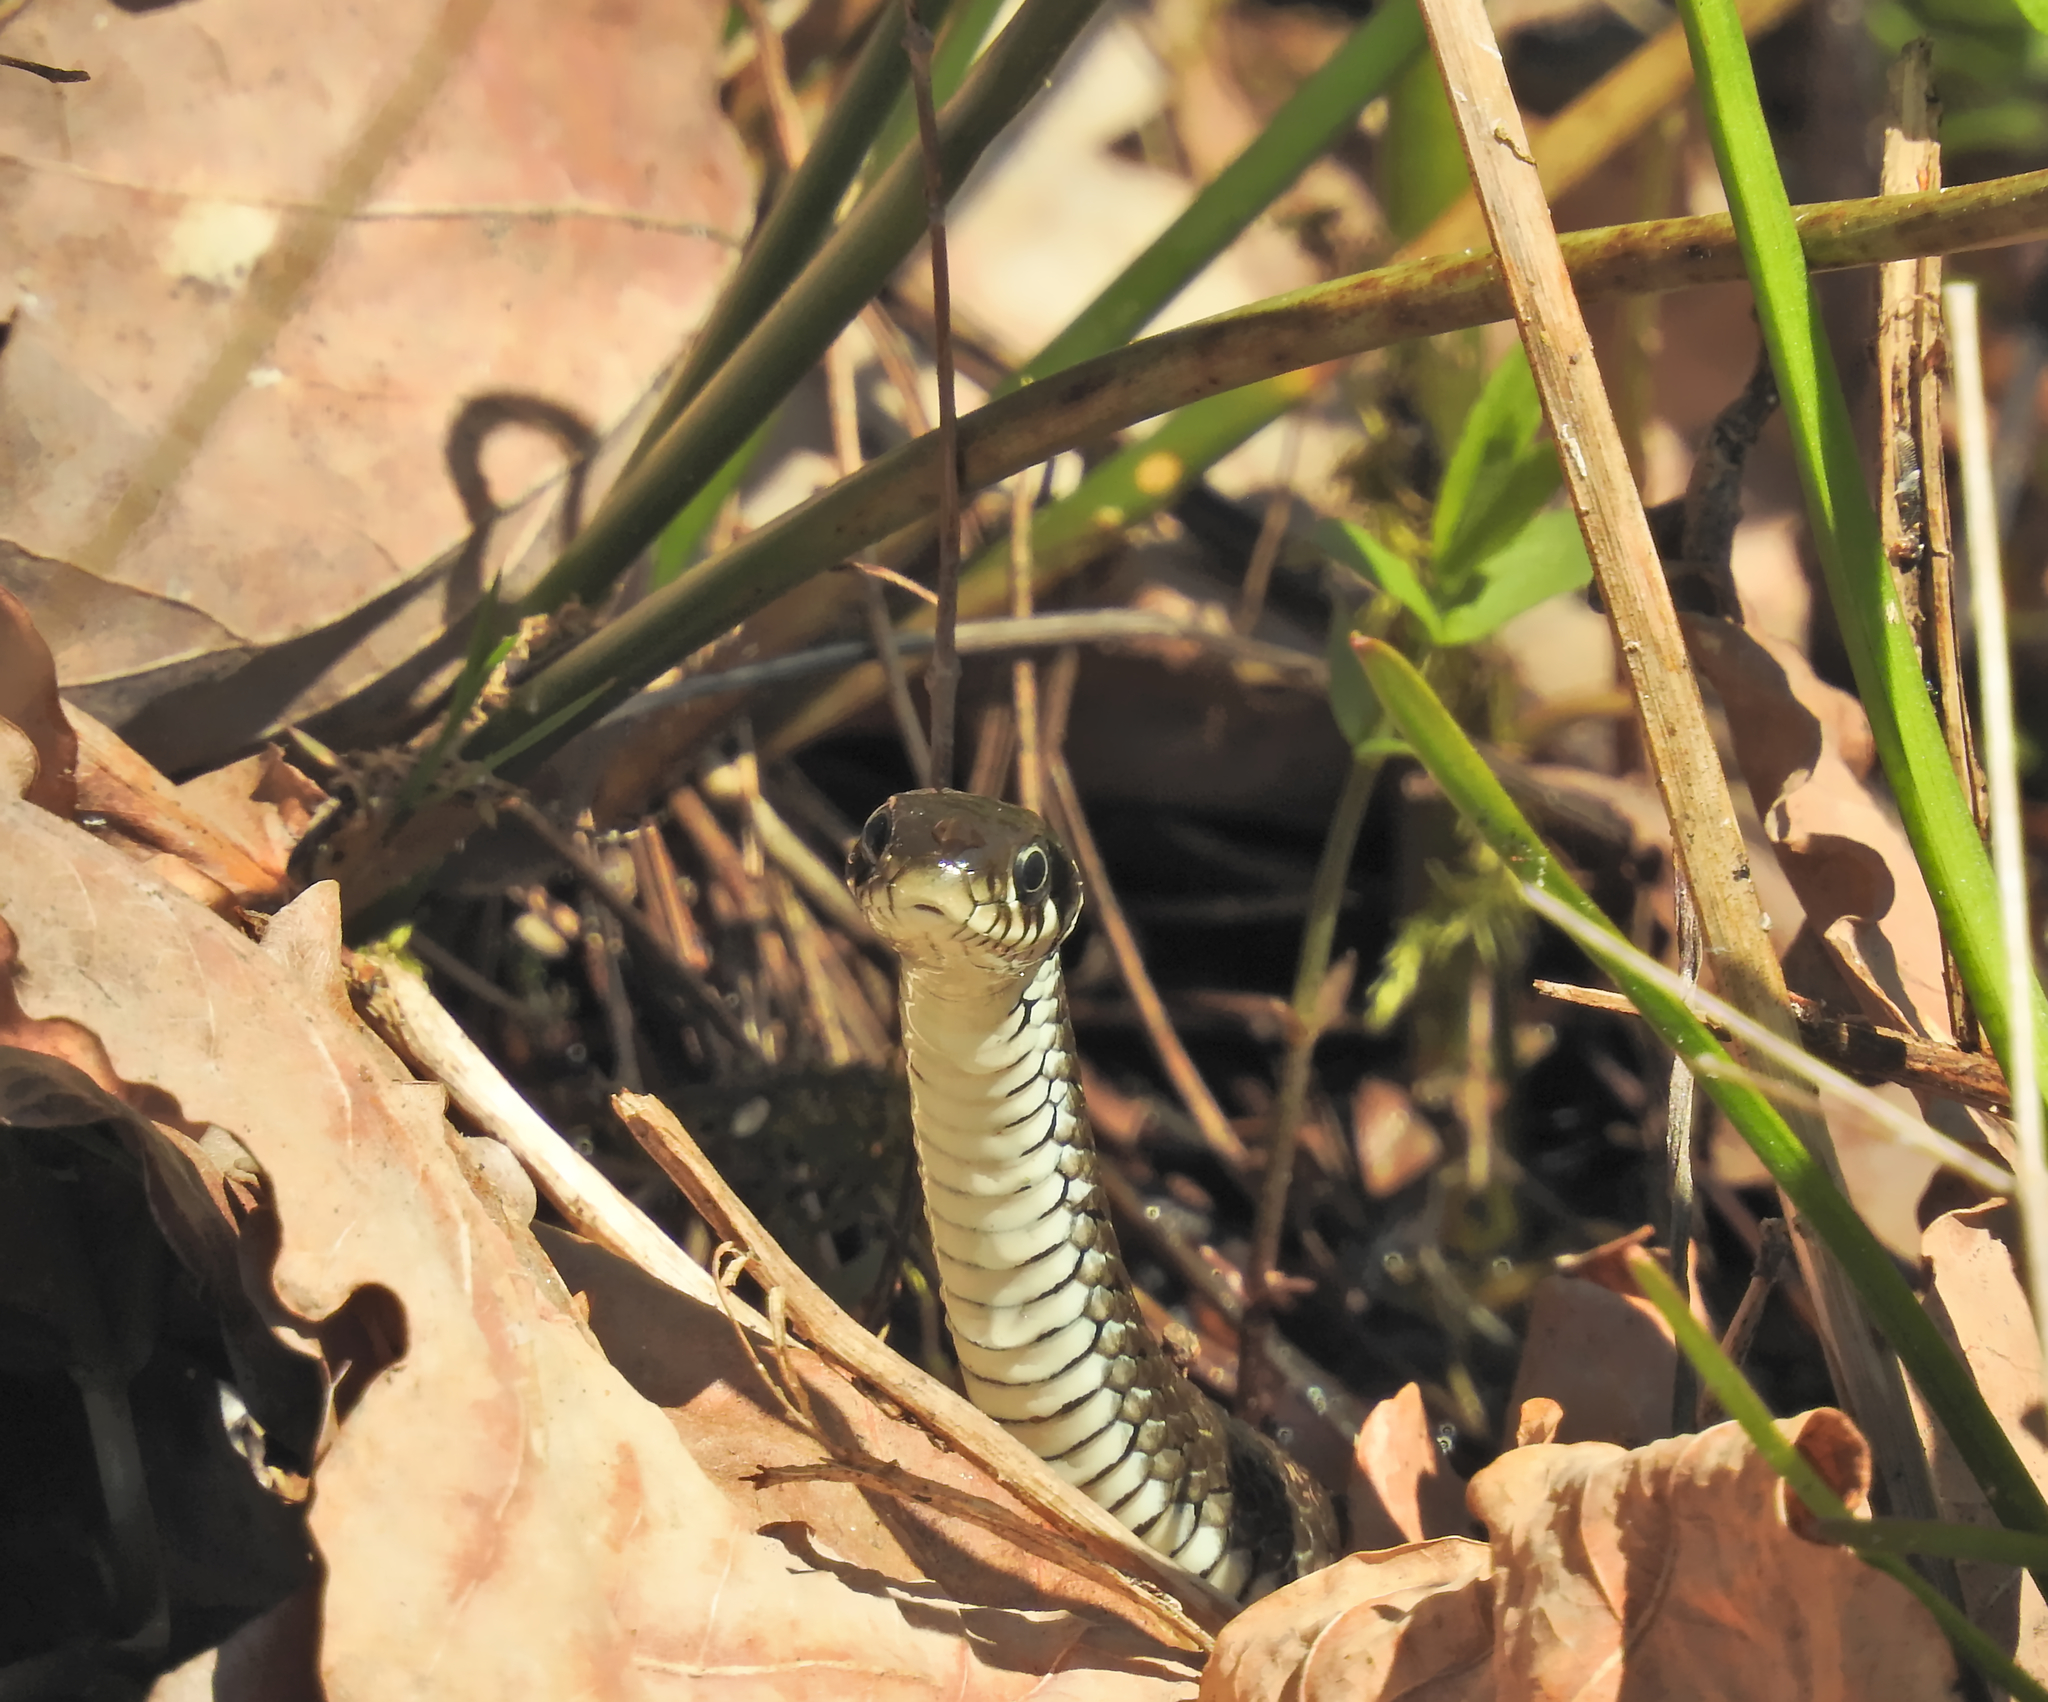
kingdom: Animalia
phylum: Chordata
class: Squamata
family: Colubridae
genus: Natrix
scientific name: Natrix natrix
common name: Grass snake
